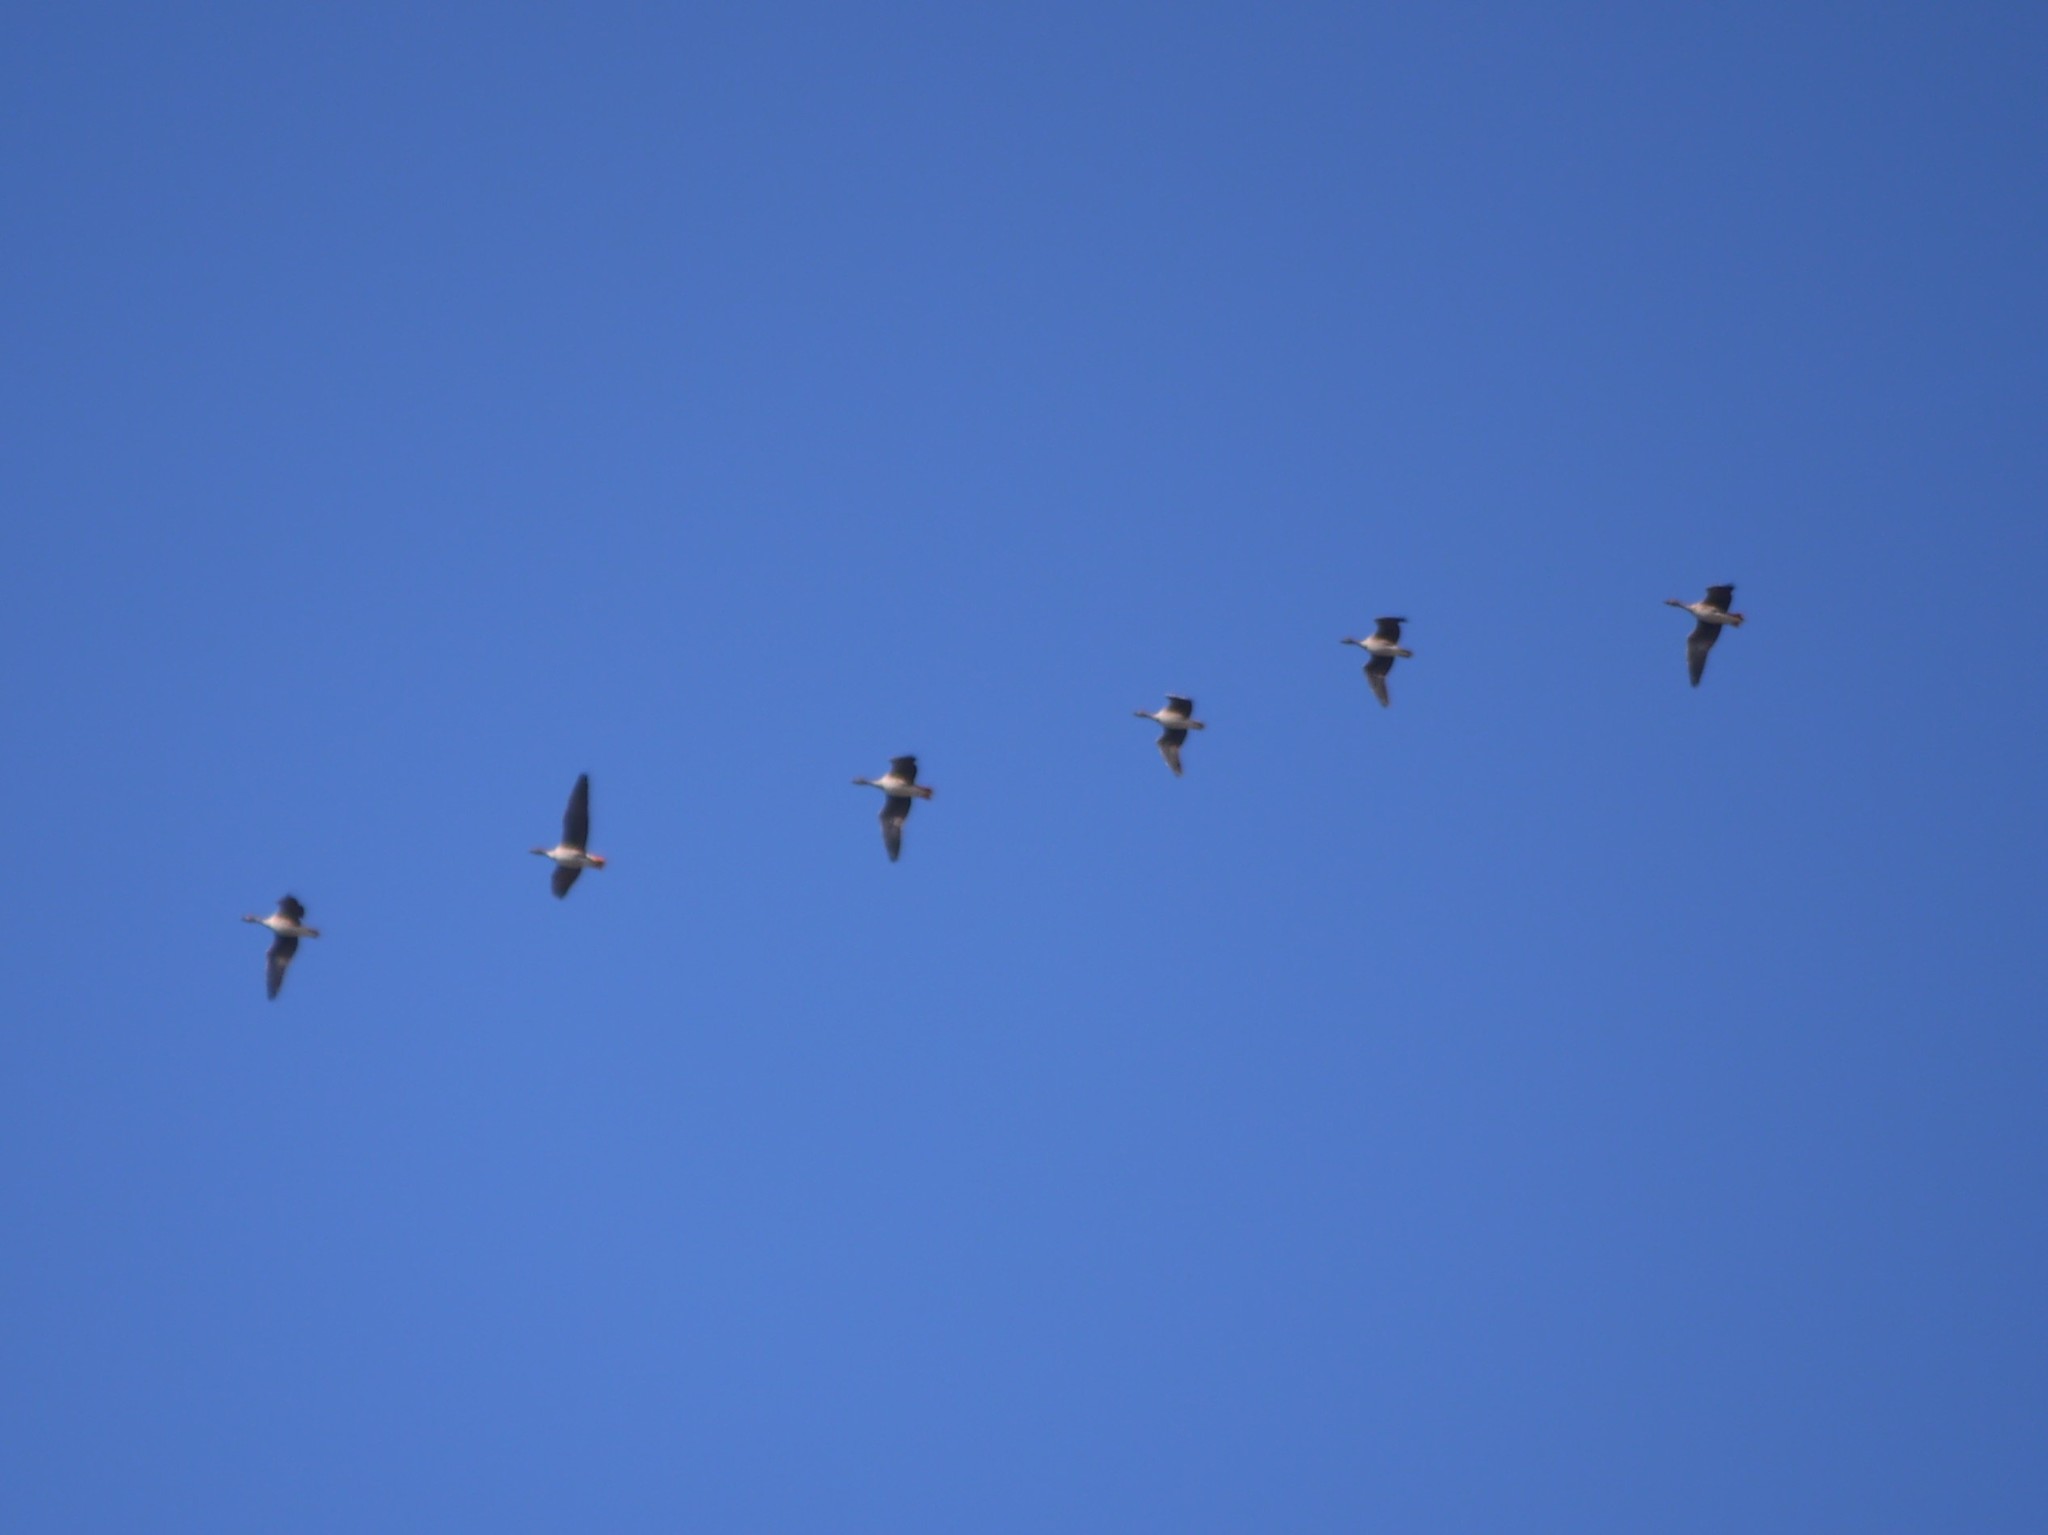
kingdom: Animalia
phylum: Chordata
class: Aves
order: Anseriformes
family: Anatidae
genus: Anser
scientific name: Anser anser
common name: Greylag goose
